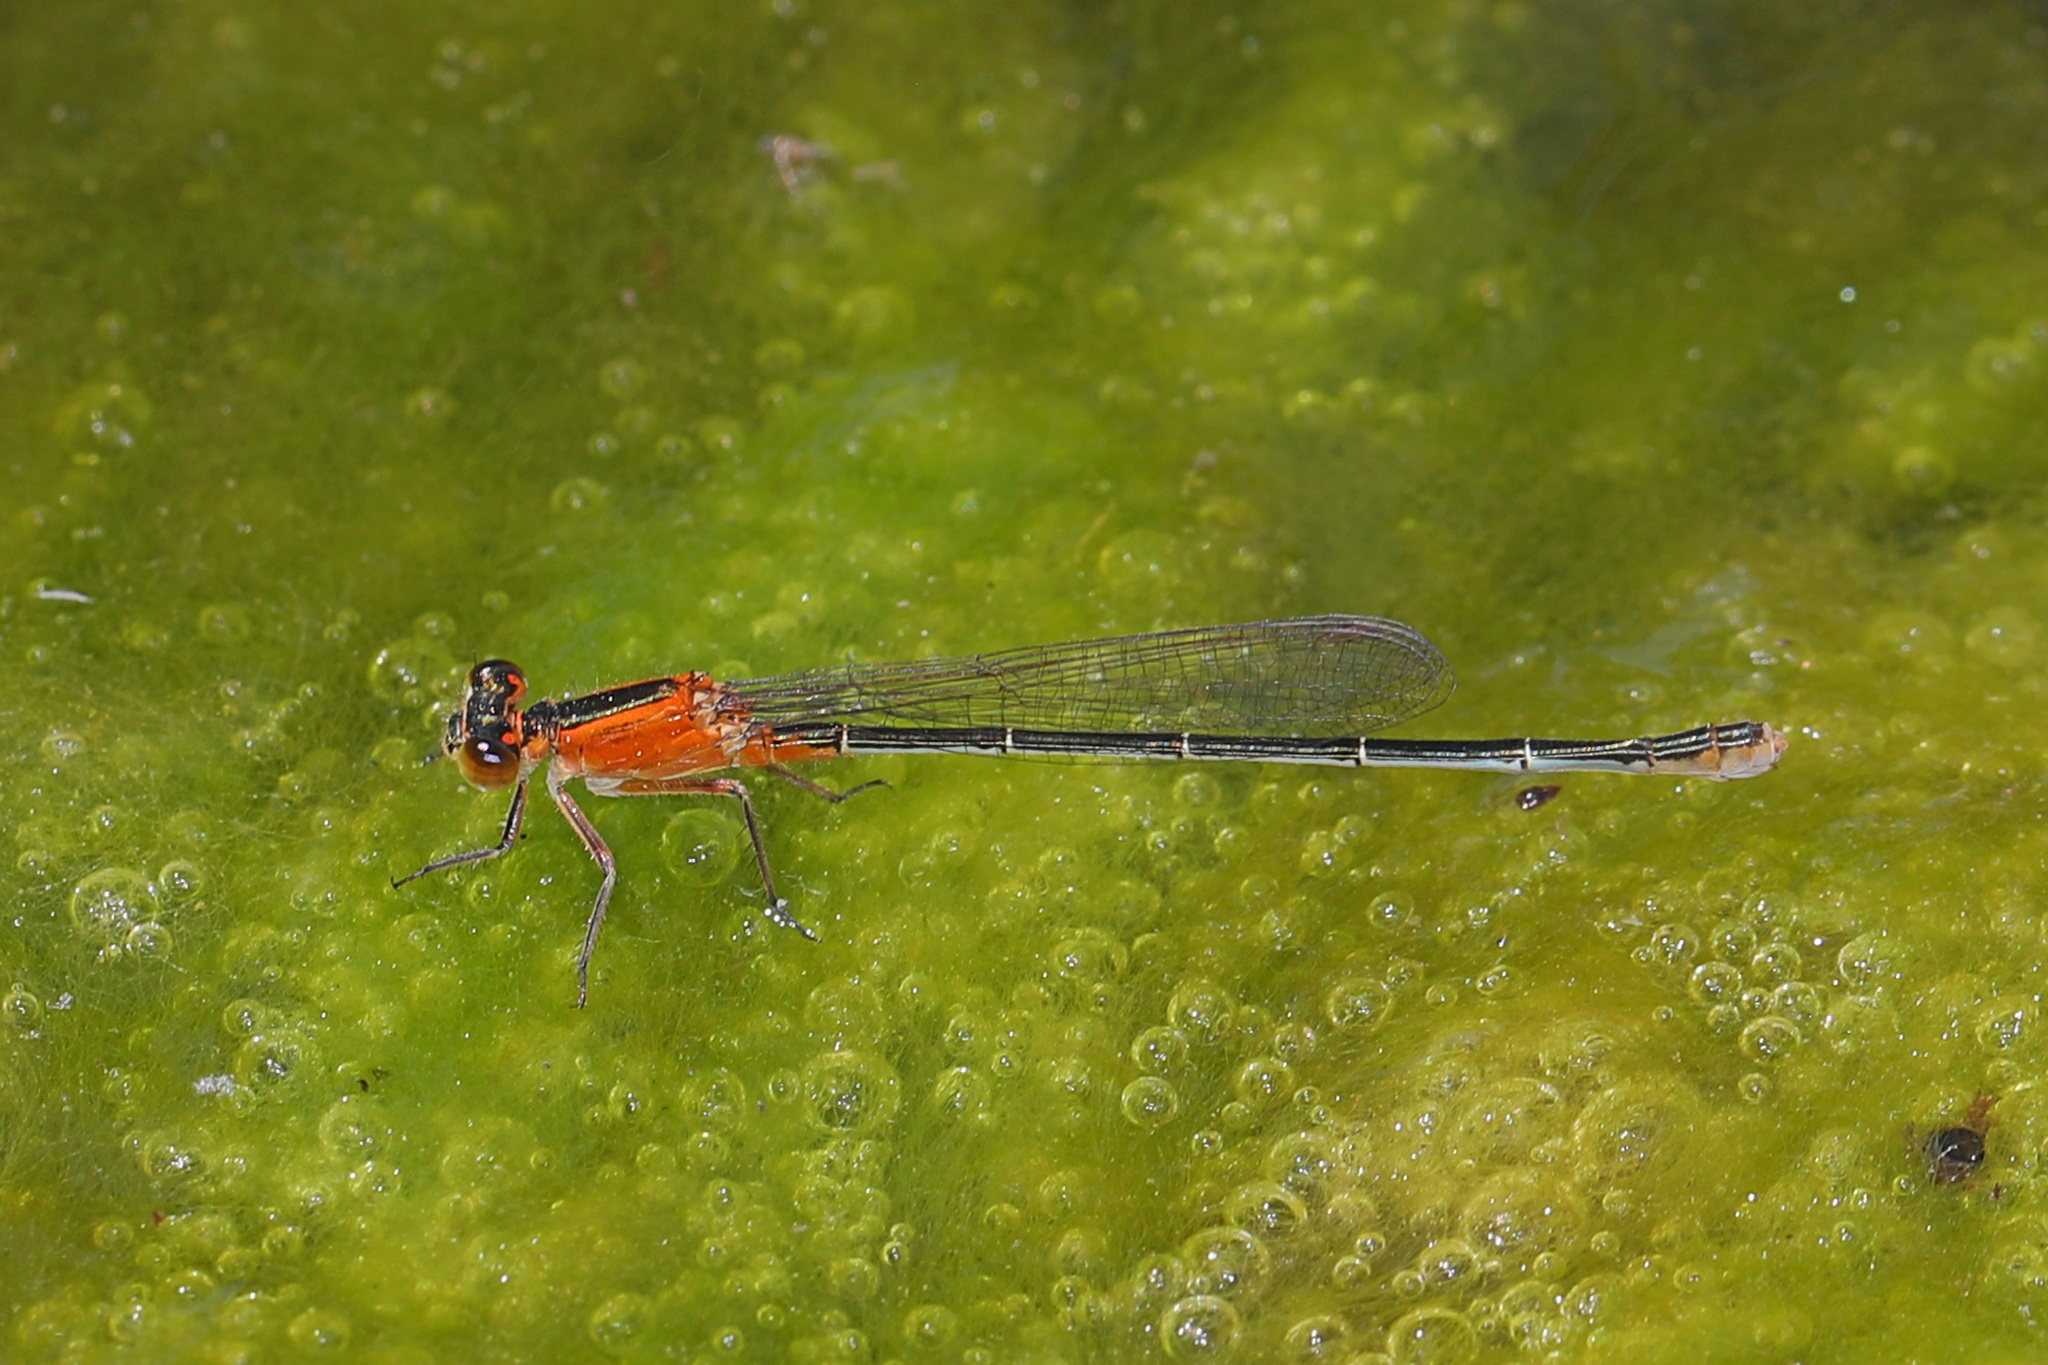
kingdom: Animalia
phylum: Arthropoda
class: Insecta
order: Odonata
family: Coenagrionidae
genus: Ischnura
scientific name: Ischnura ramburii
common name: Rambur's forktail
